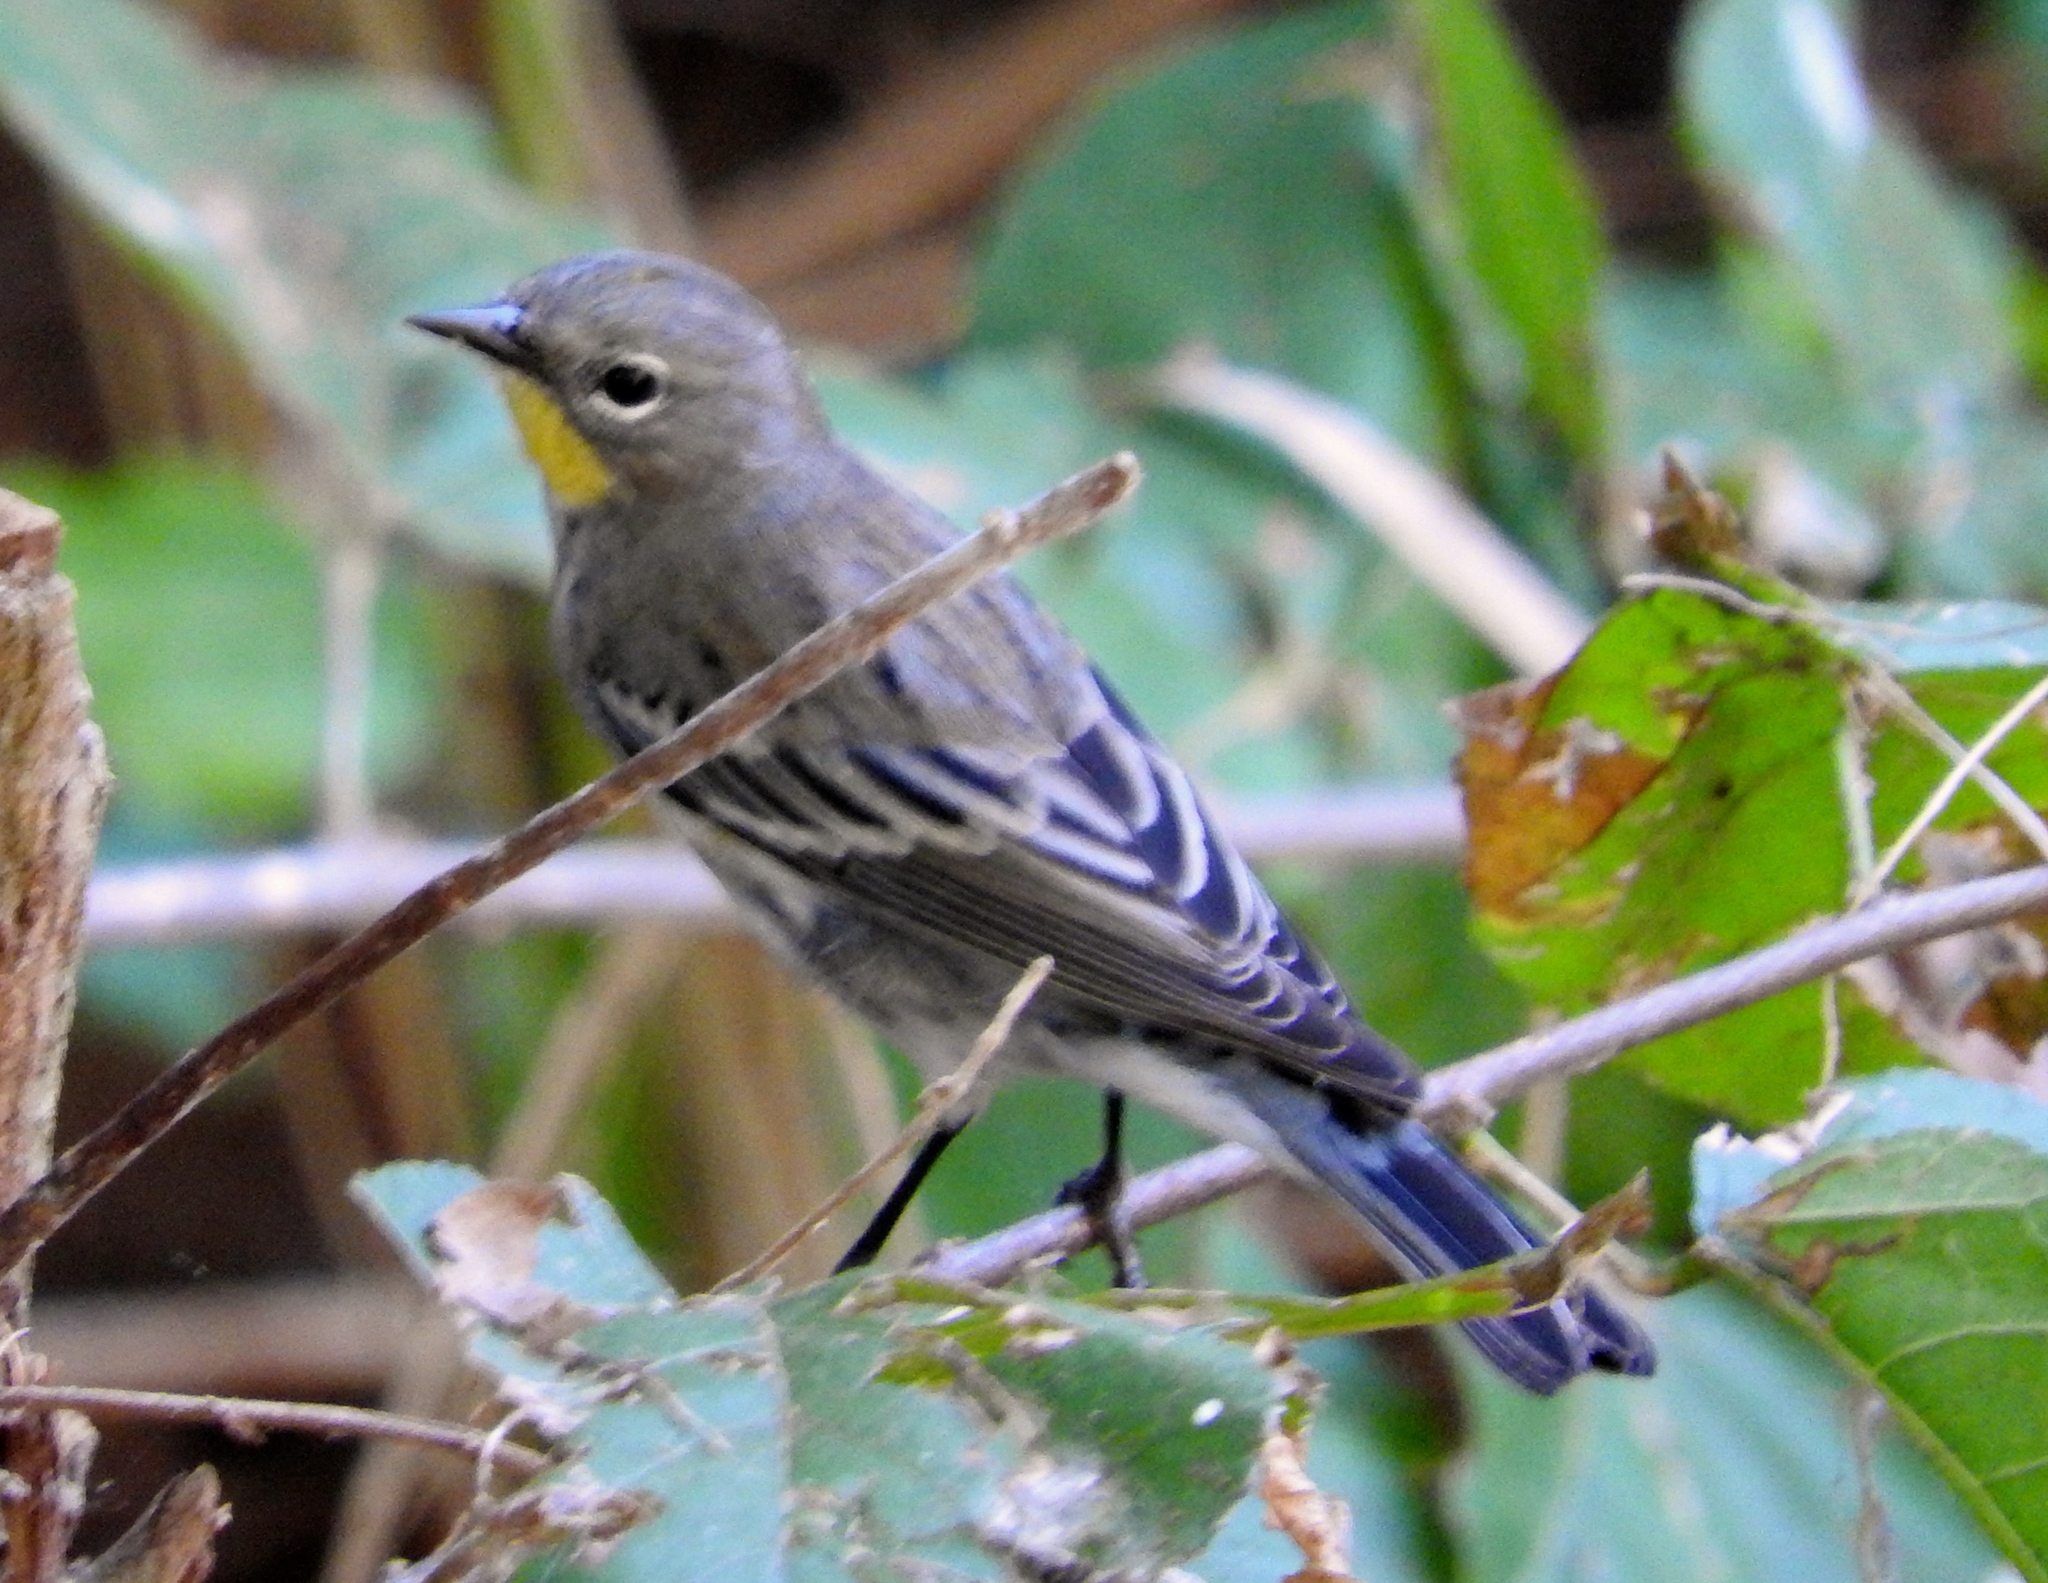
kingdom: Animalia
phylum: Chordata
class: Aves
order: Passeriformes
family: Parulidae
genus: Setophaga
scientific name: Setophaga coronata
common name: Myrtle warbler
